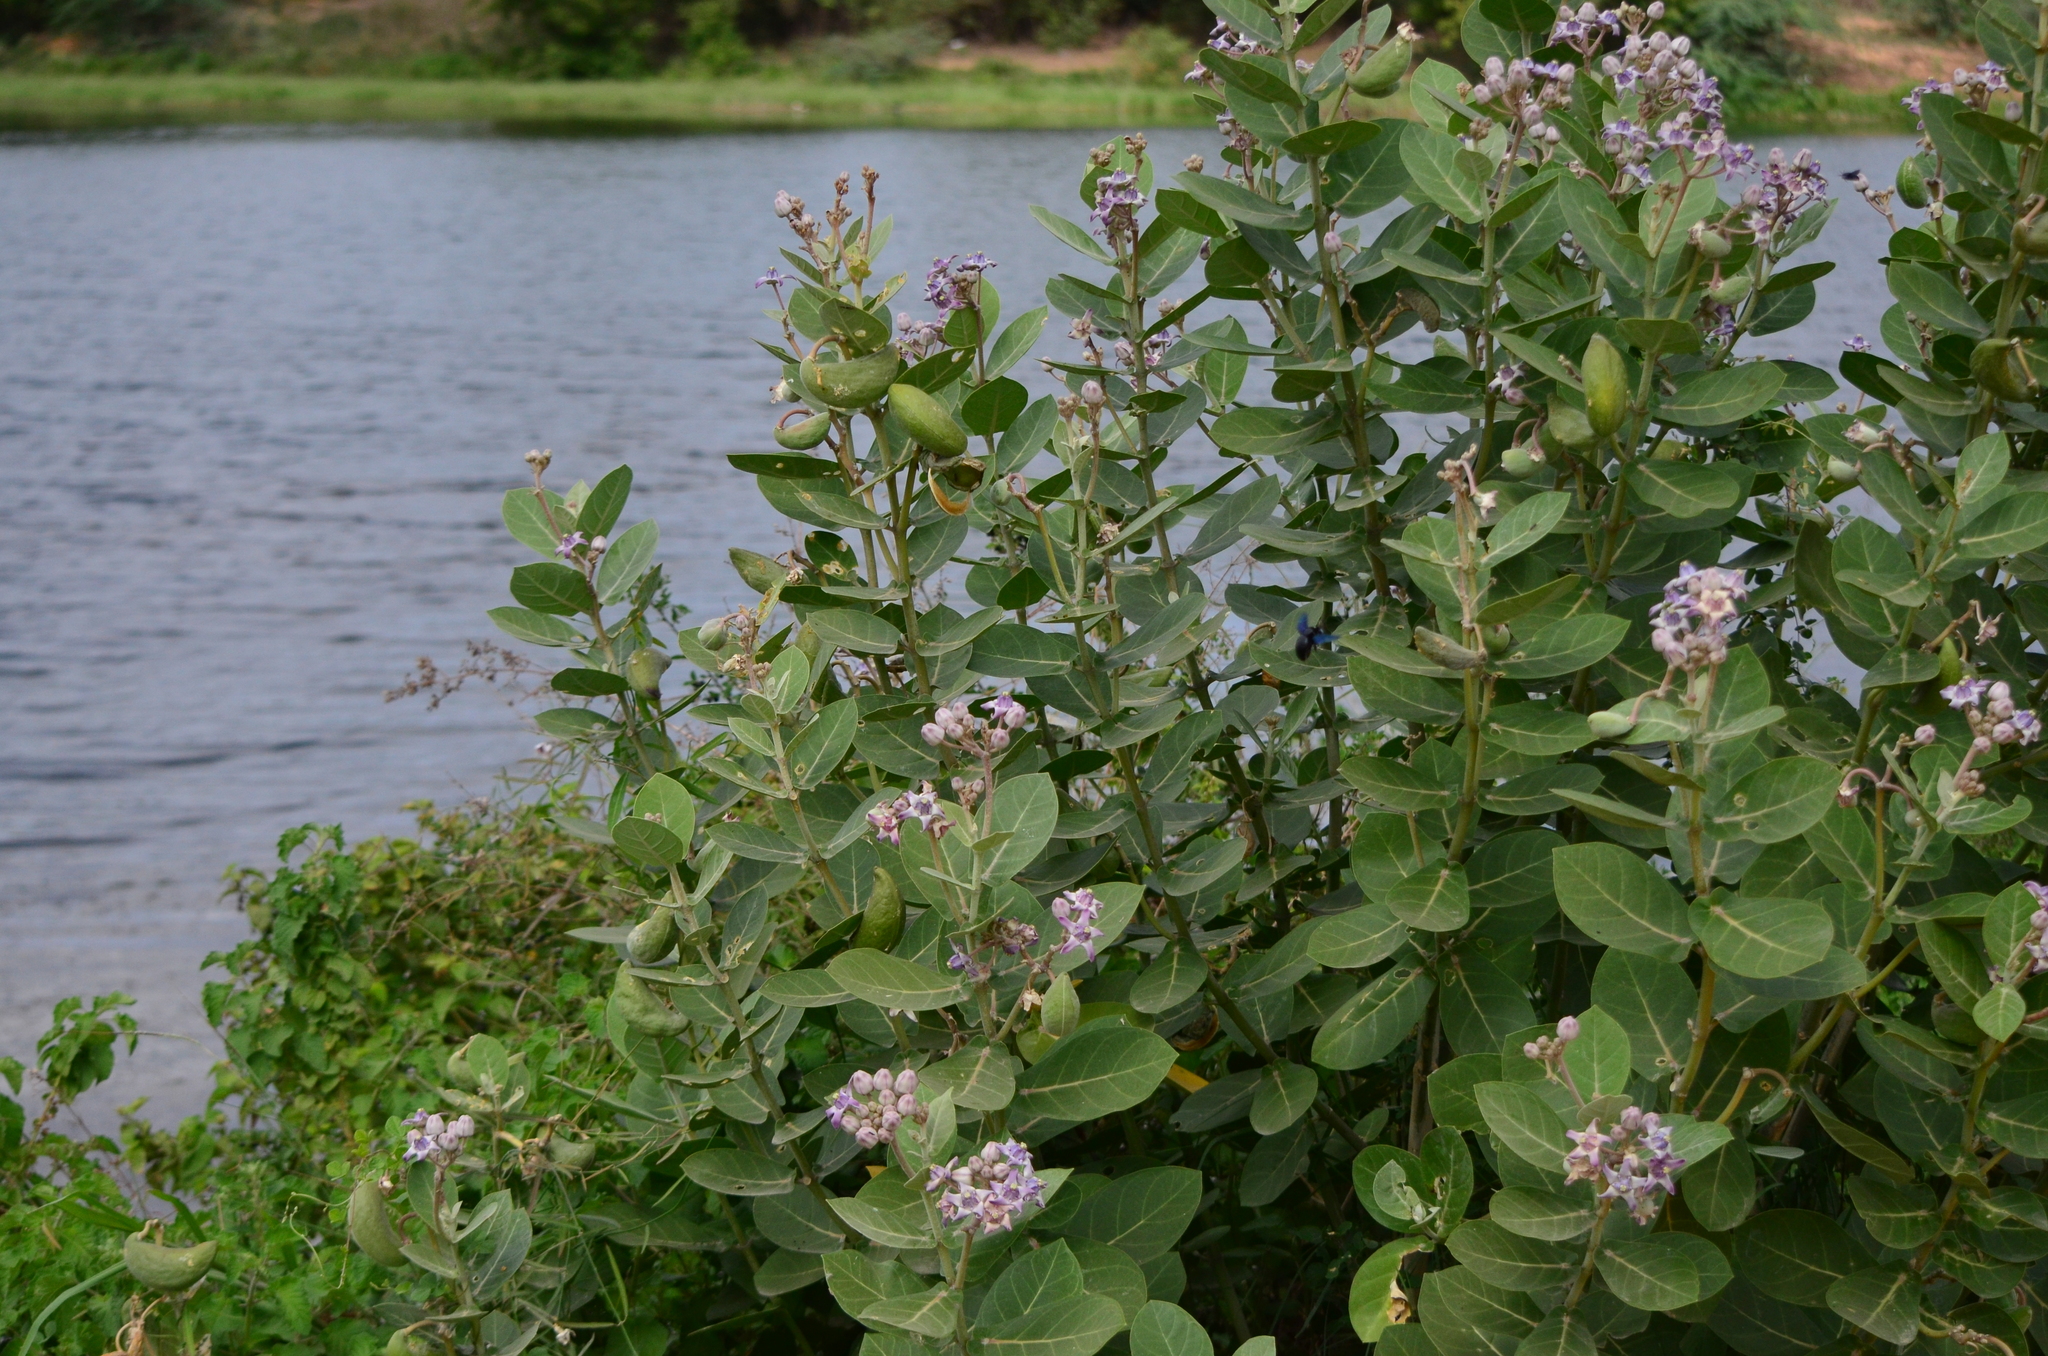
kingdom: Plantae
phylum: Tracheophyta
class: Magnoliopsida
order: Gentianales
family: Apocynaceae
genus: Calotropis
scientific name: Calotropis gigantea
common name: Crown flower
